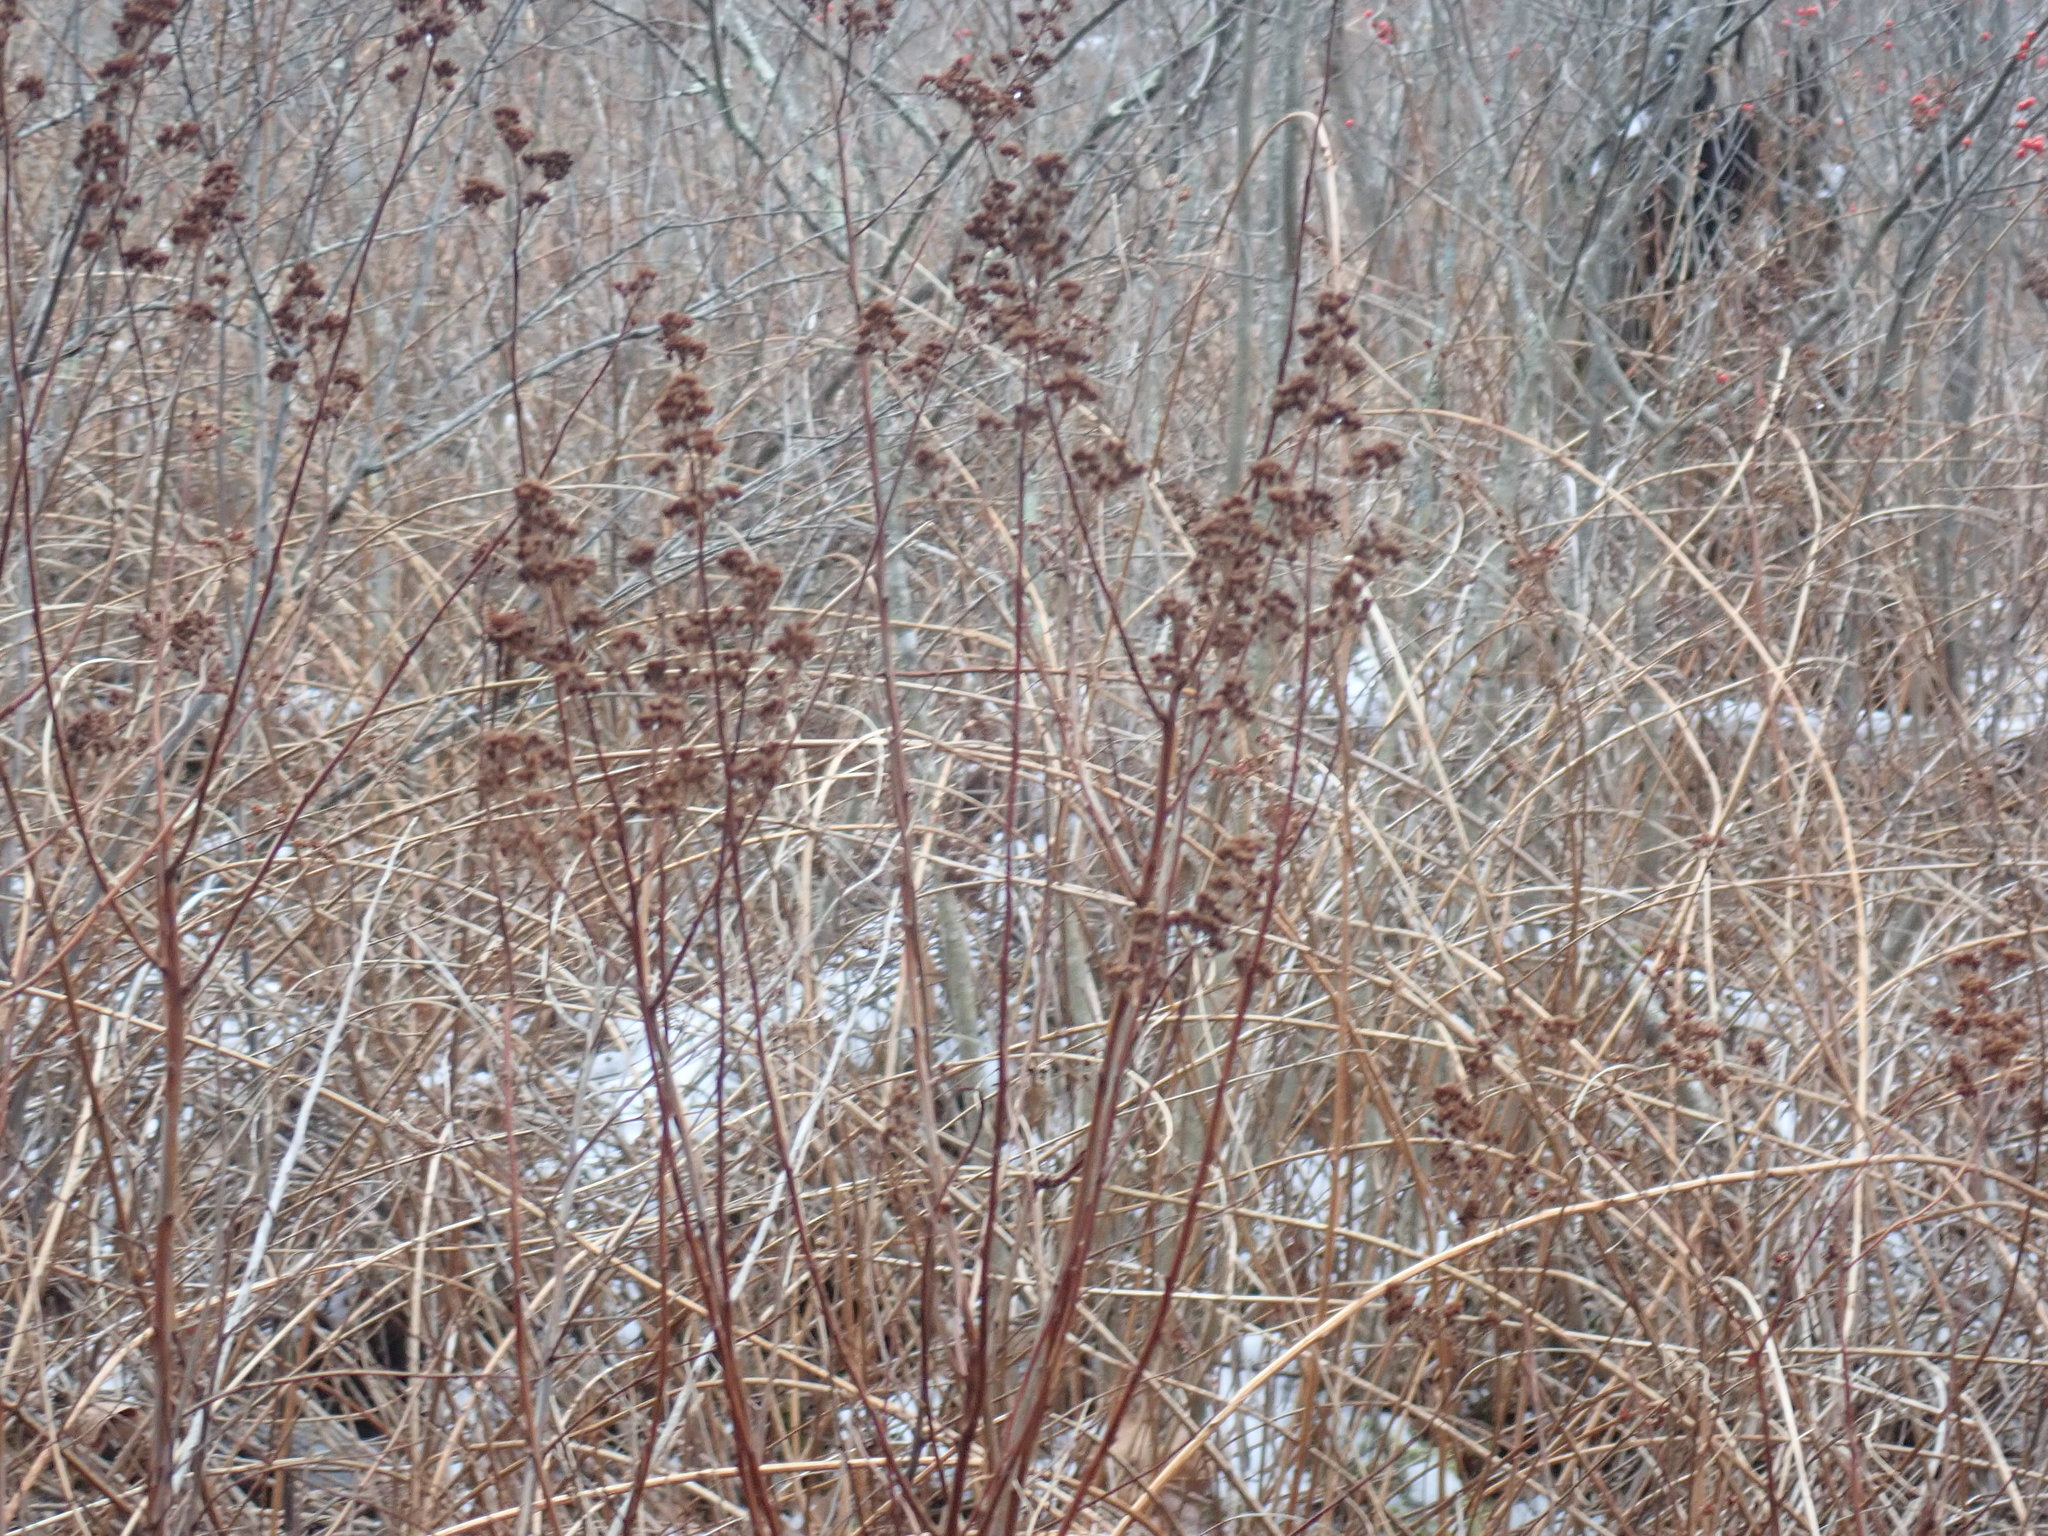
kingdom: Plantae
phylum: Tracheophyta
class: Magnoliopsida
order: Rosales
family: Rosaceae
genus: Spiraea
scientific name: Spiraea alba
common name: Pale bridewort
